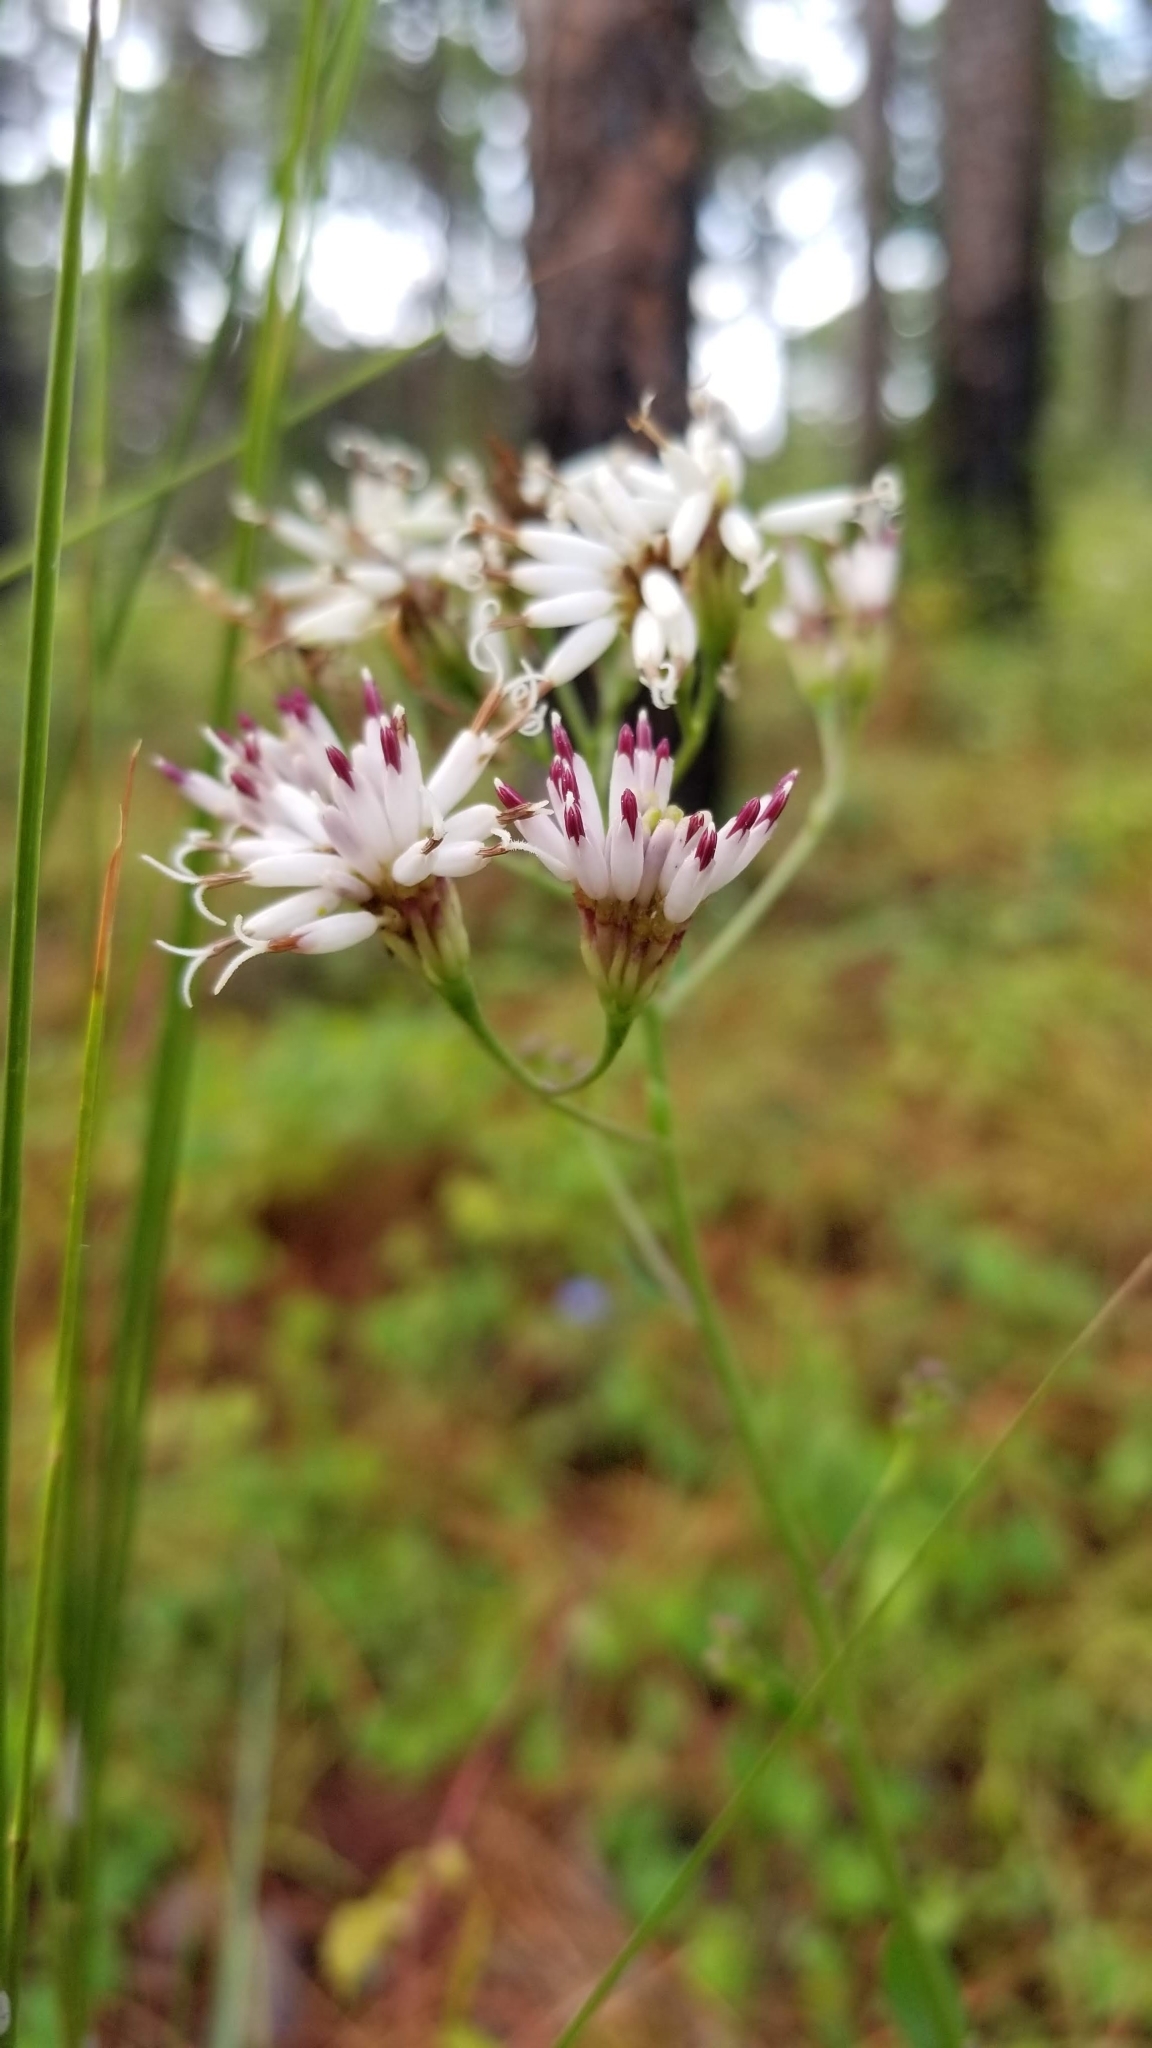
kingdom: Plantae
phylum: Tracheophyta
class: Magnoliopsida
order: Asterales
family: Asteraceae
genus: Palafoxia
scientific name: Palafoxia feayi
